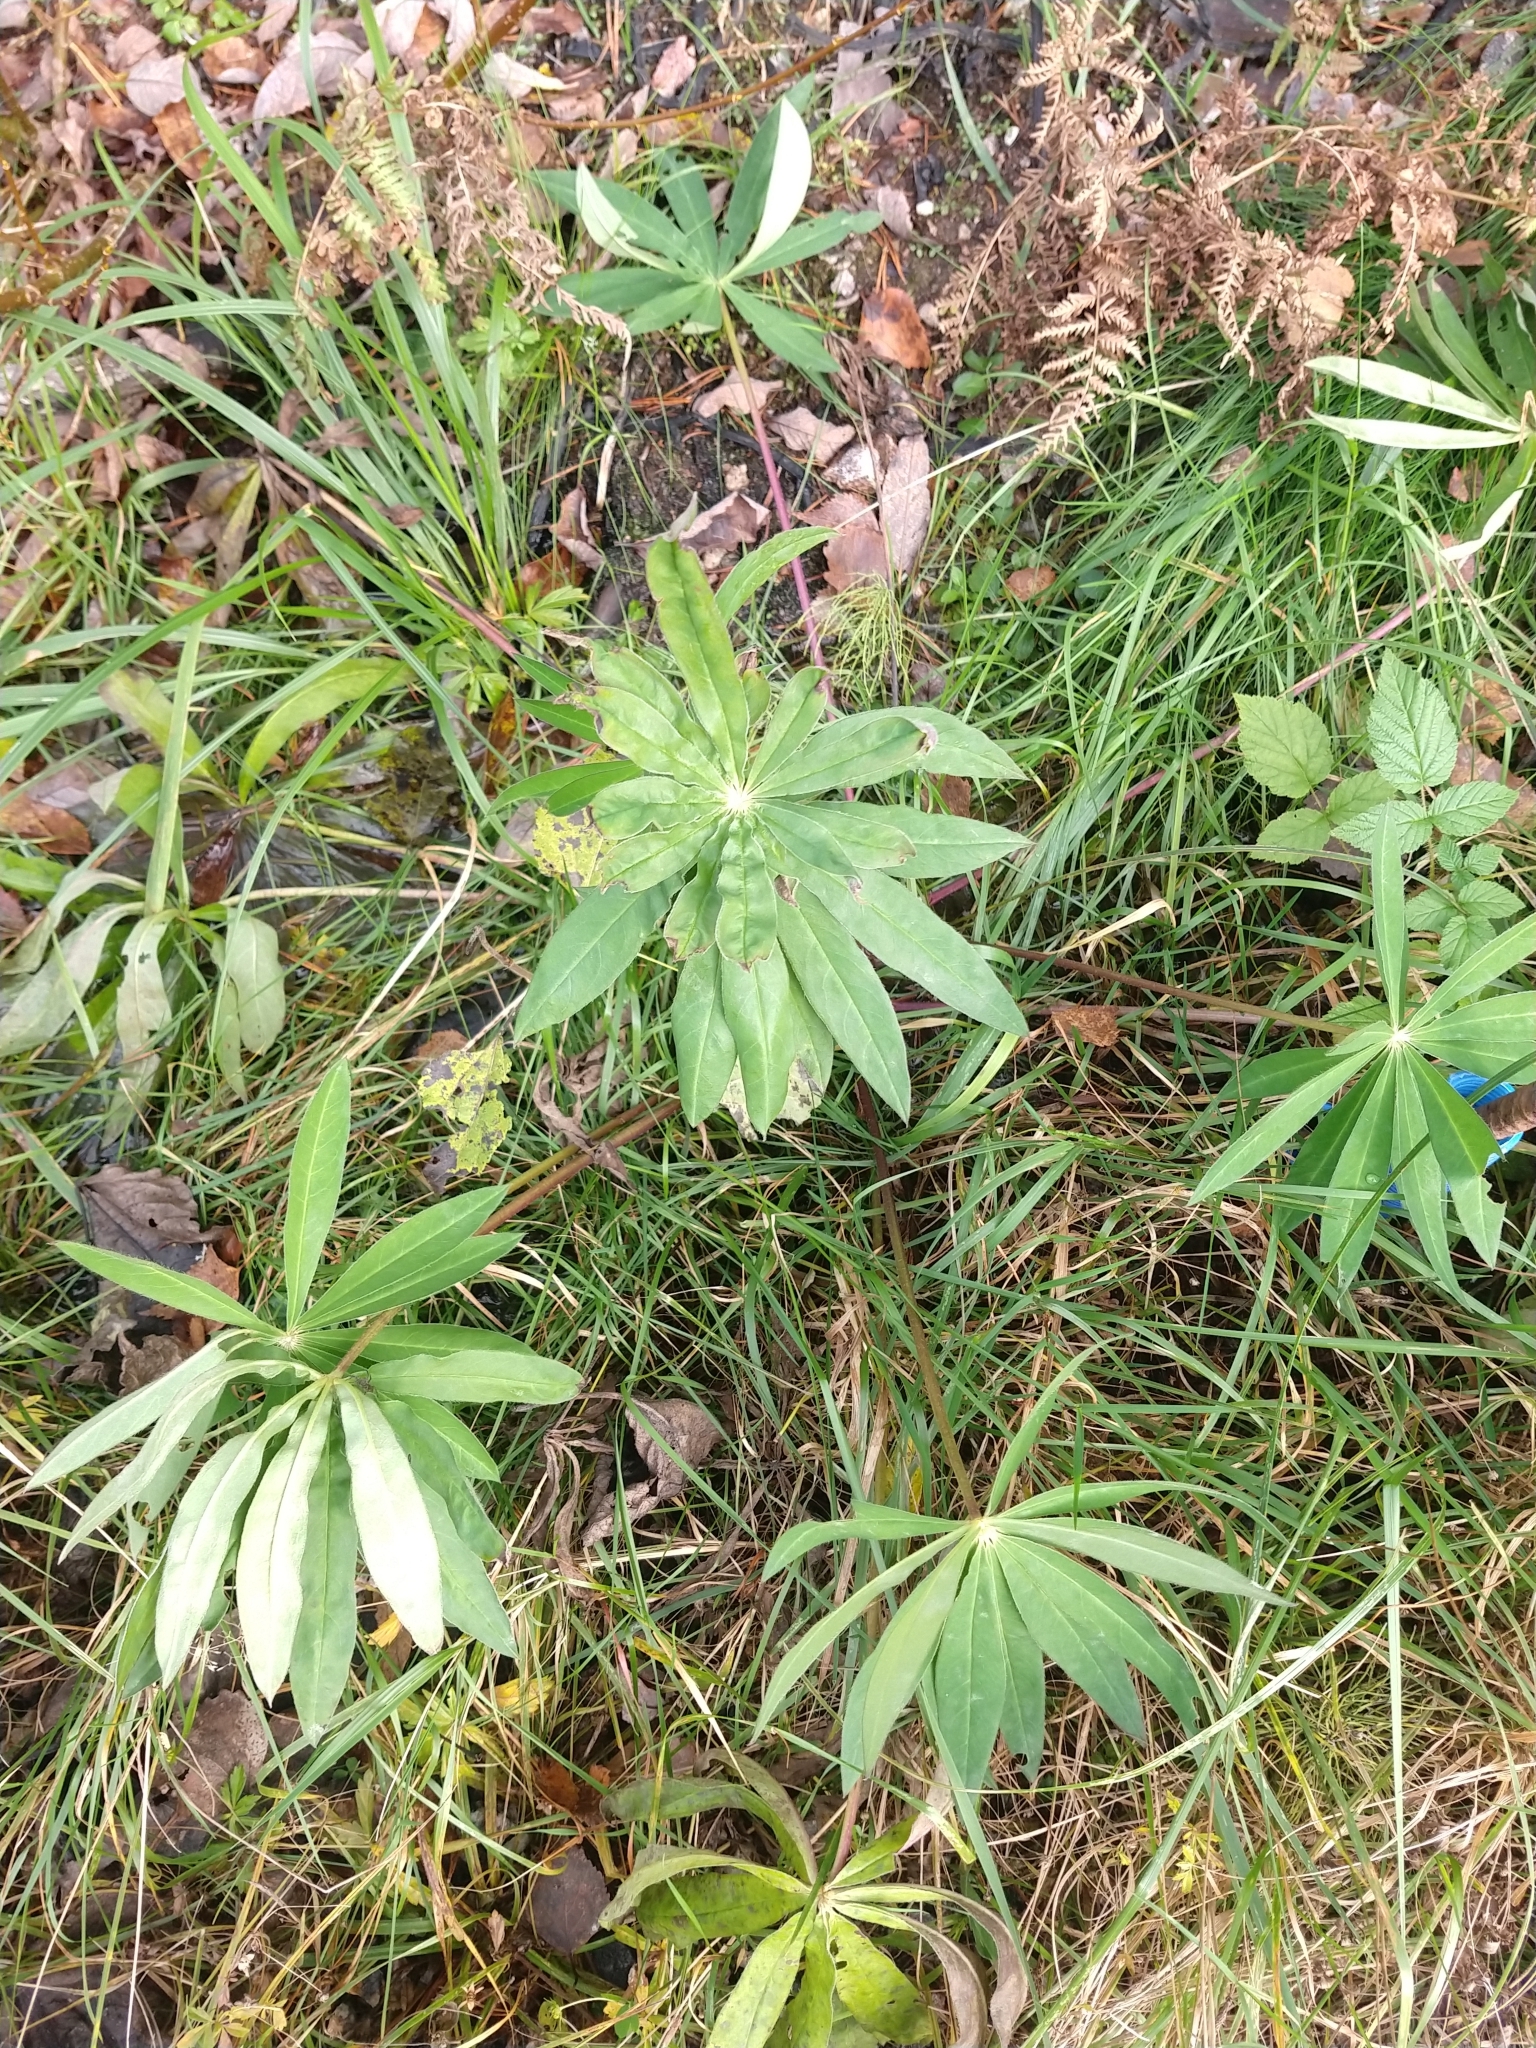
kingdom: Plantae
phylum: Tracheophyta
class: Magnoliopsida
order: Fabales
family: Fabaceae
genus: Lupinus
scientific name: Lupinus polyphyllus
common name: Garden lupin
